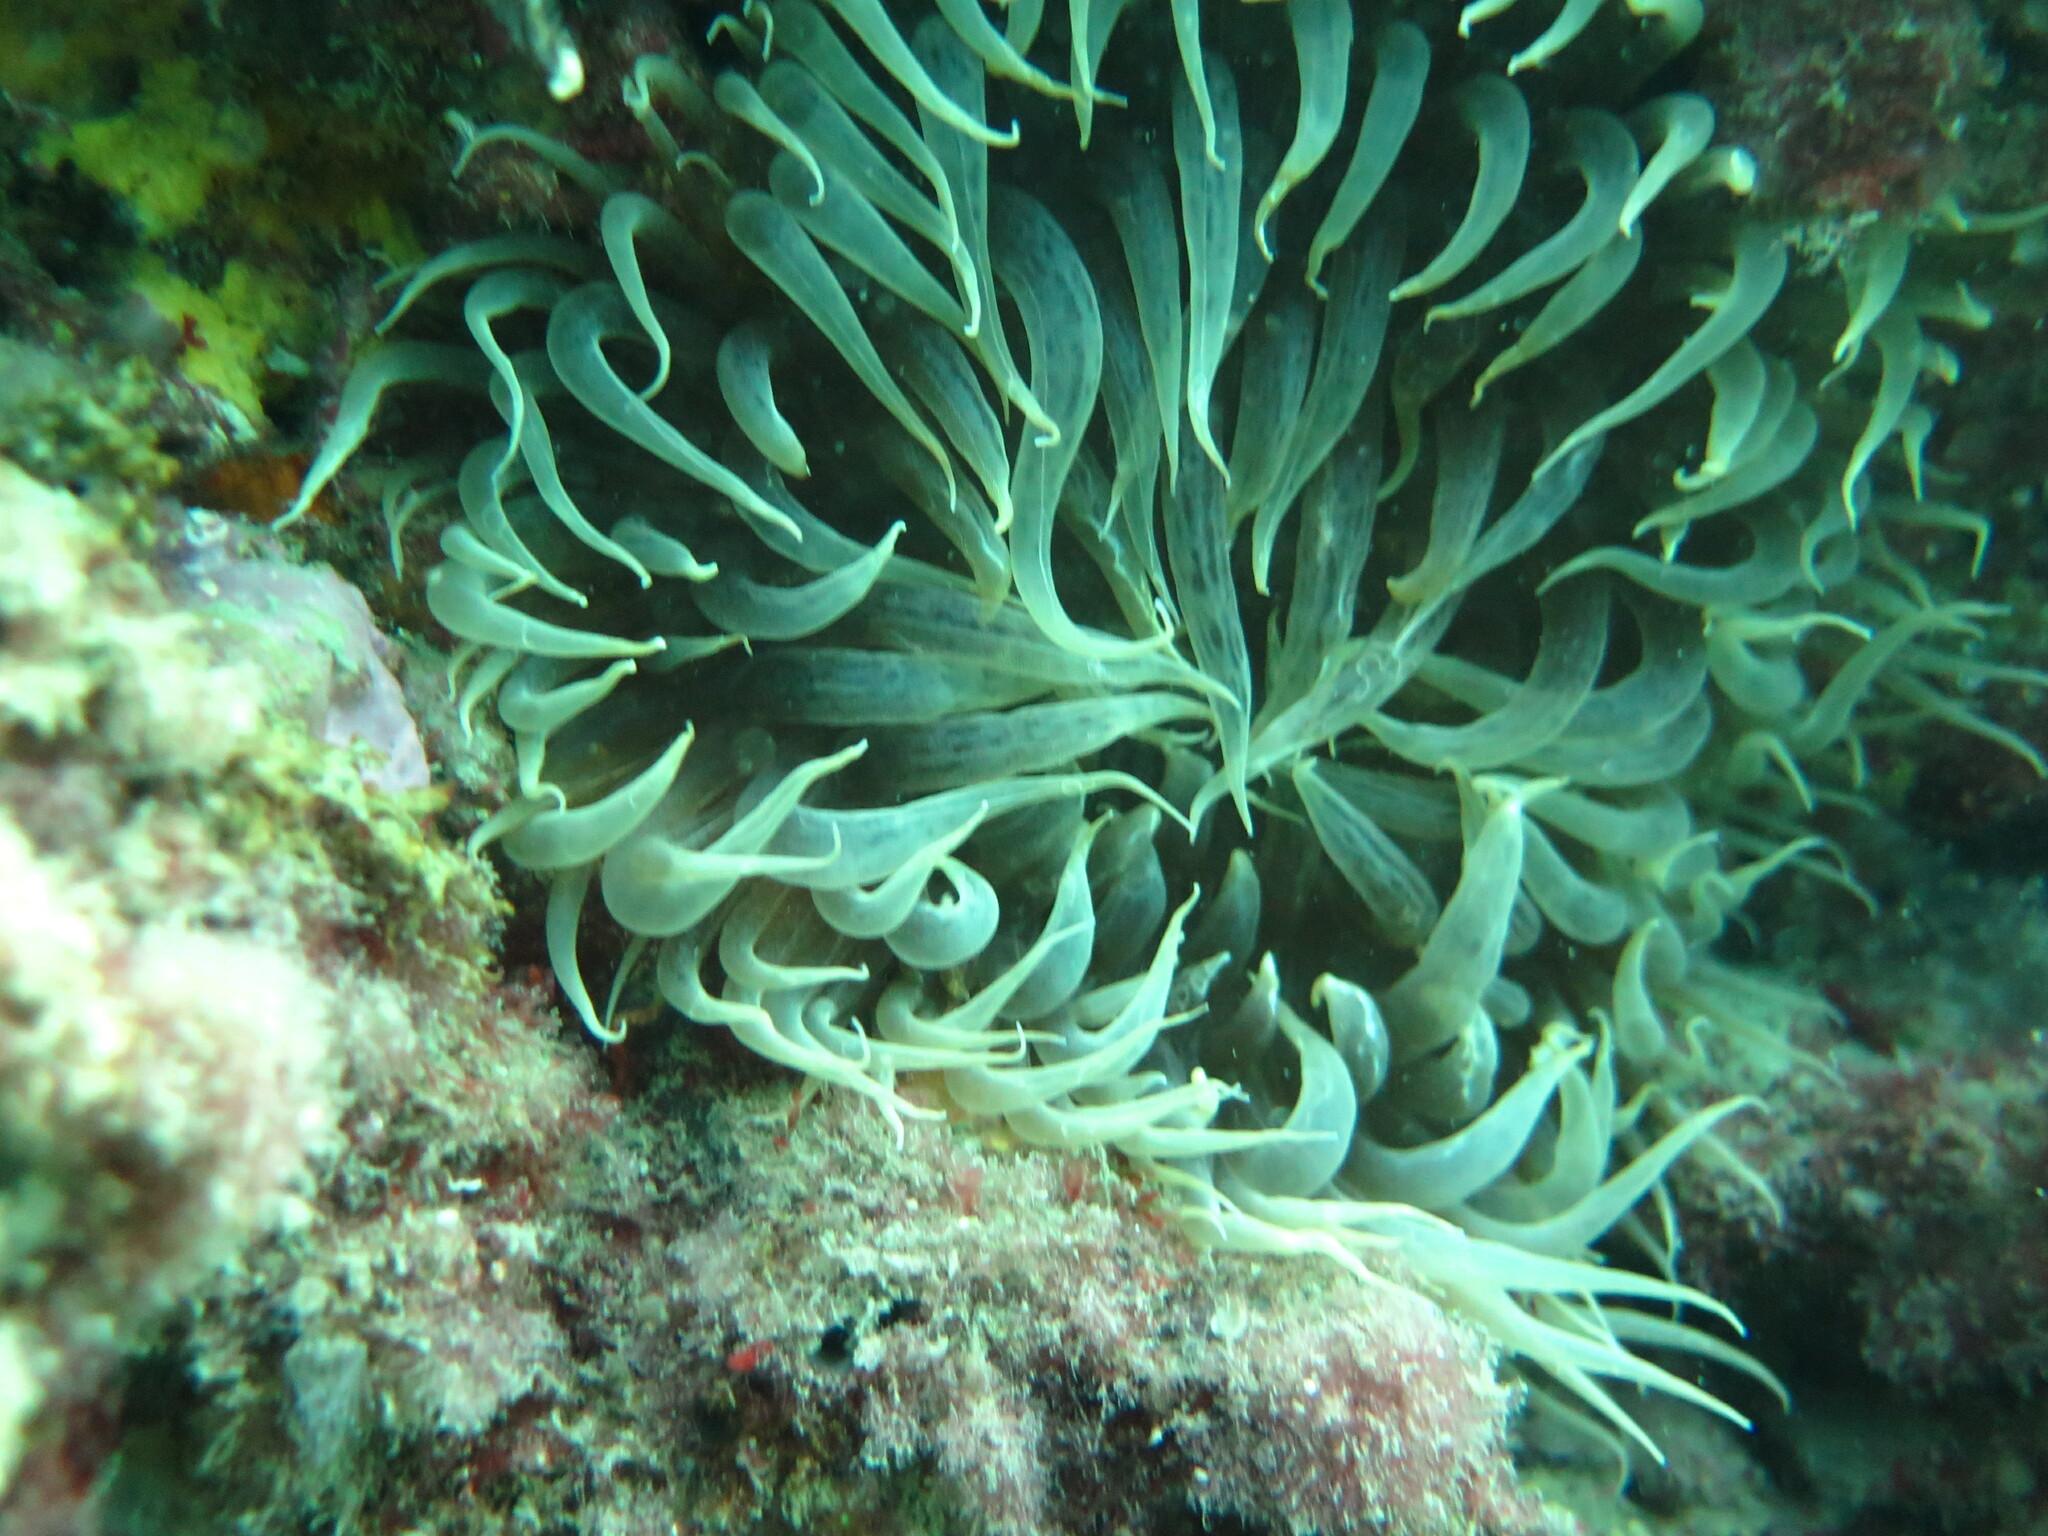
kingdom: Animalia
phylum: Cnidaria
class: Anthozoa
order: Actiniaria
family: Aiptasiidae
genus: Aiptasia
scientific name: Aiptasia mutabilis
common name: Trumpet anemone
